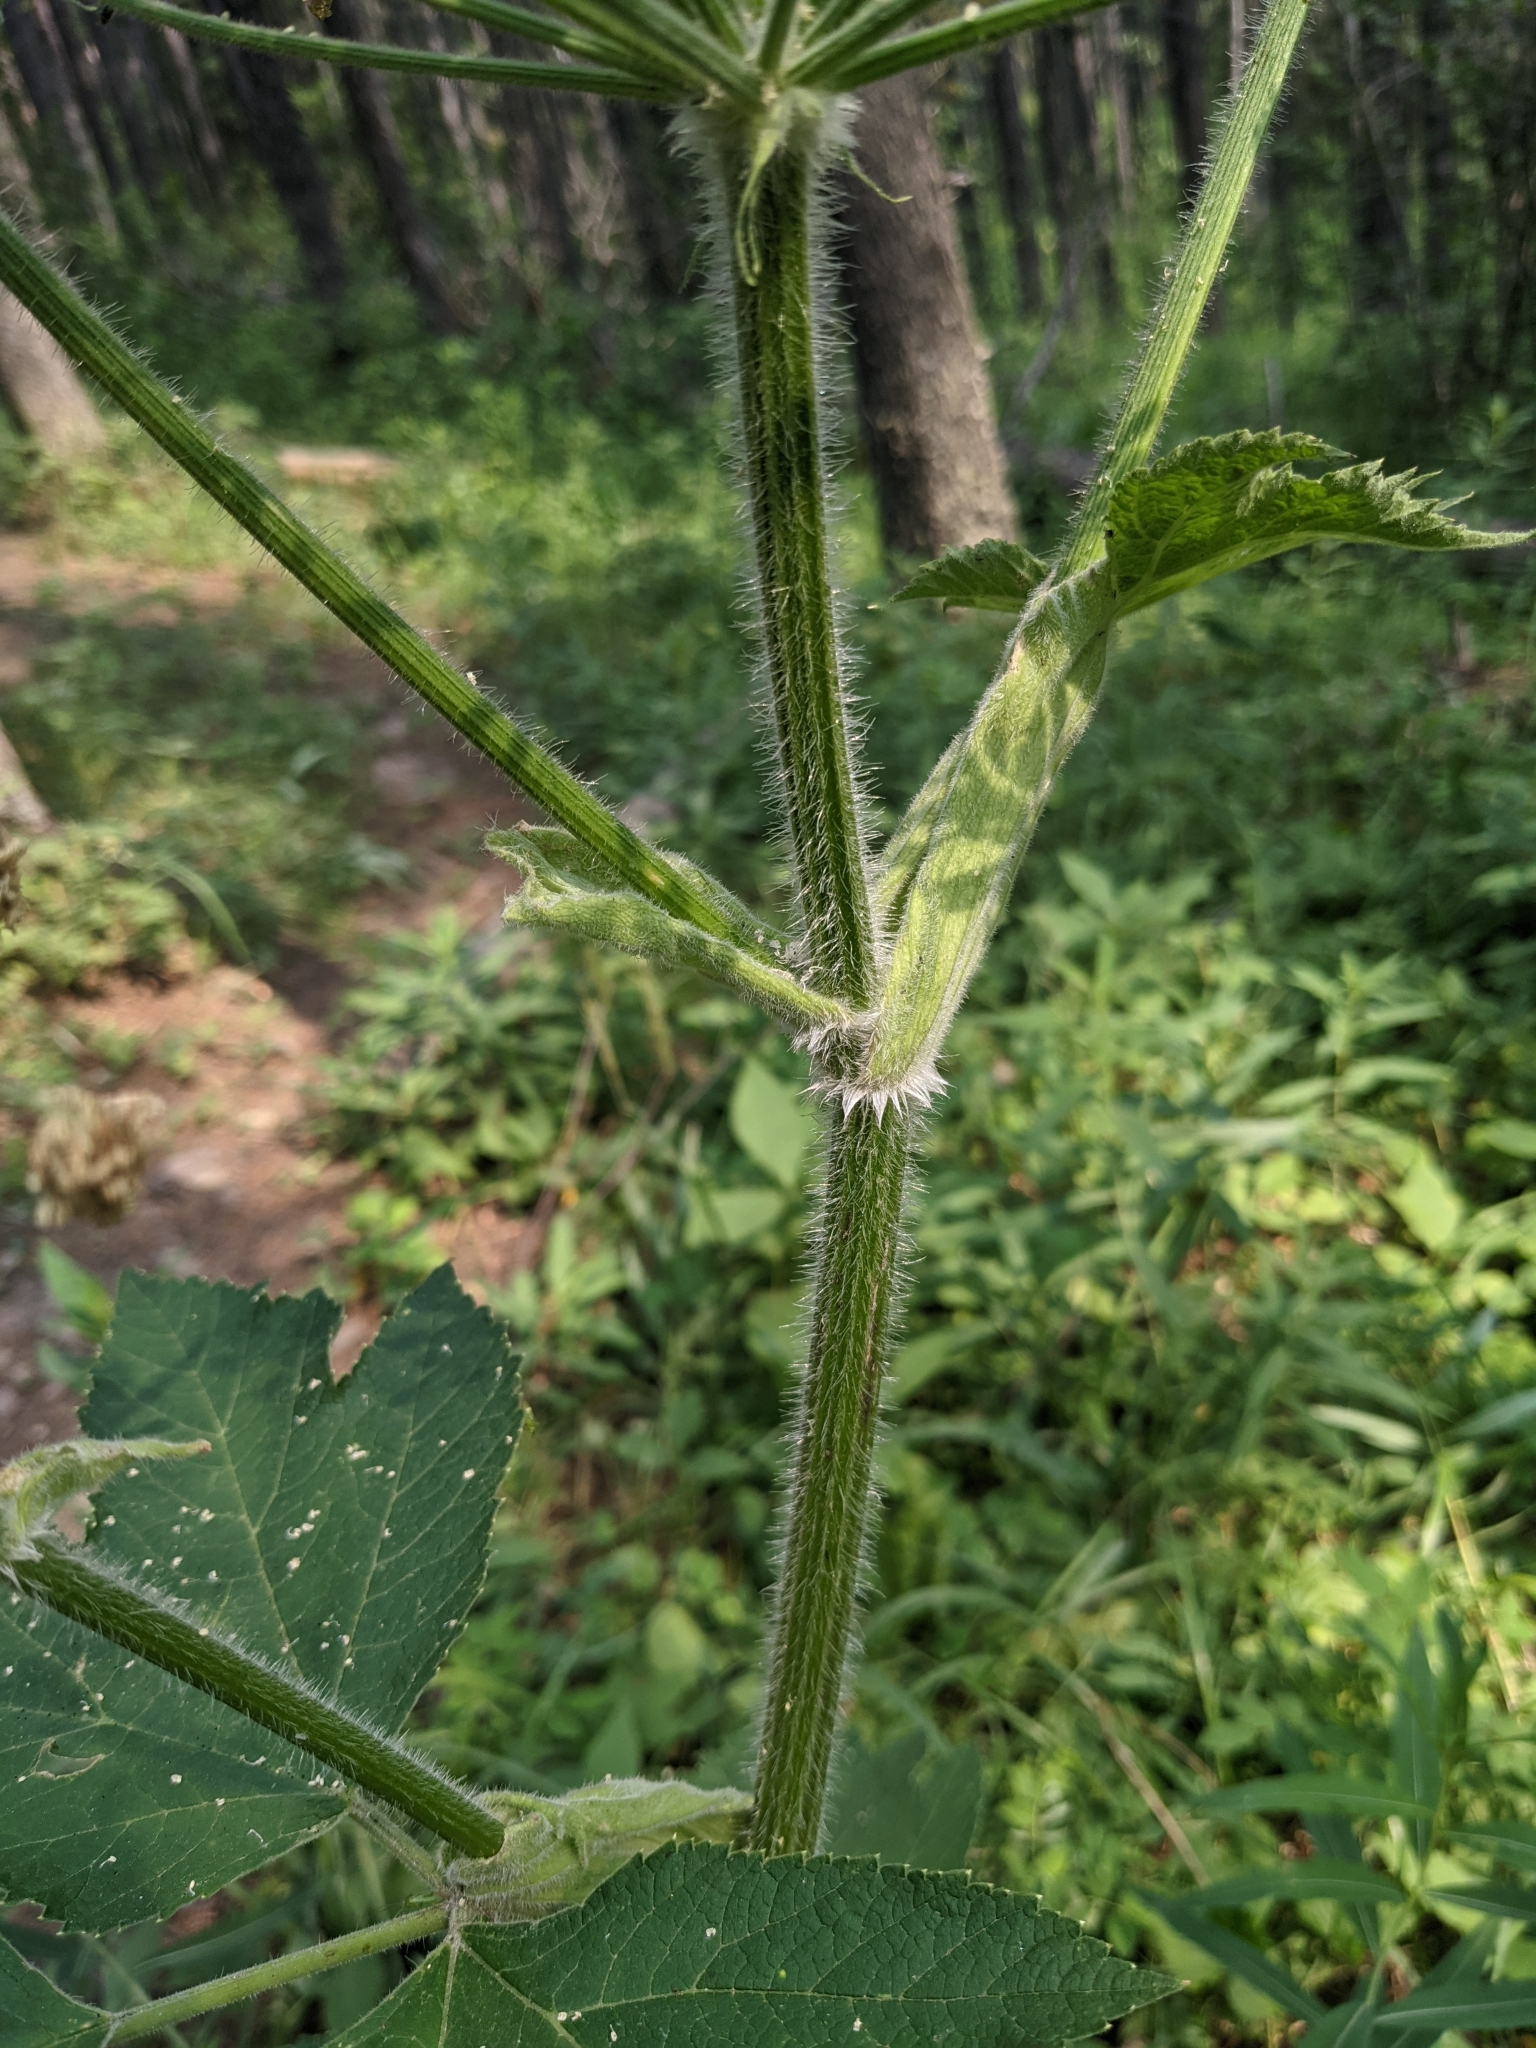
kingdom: Plantae
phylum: Tracheophyta
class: Magnoliopsida
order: Apiales
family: Apiaceae
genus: Heracleum
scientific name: Heracleum maximum
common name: American cow parsnip
